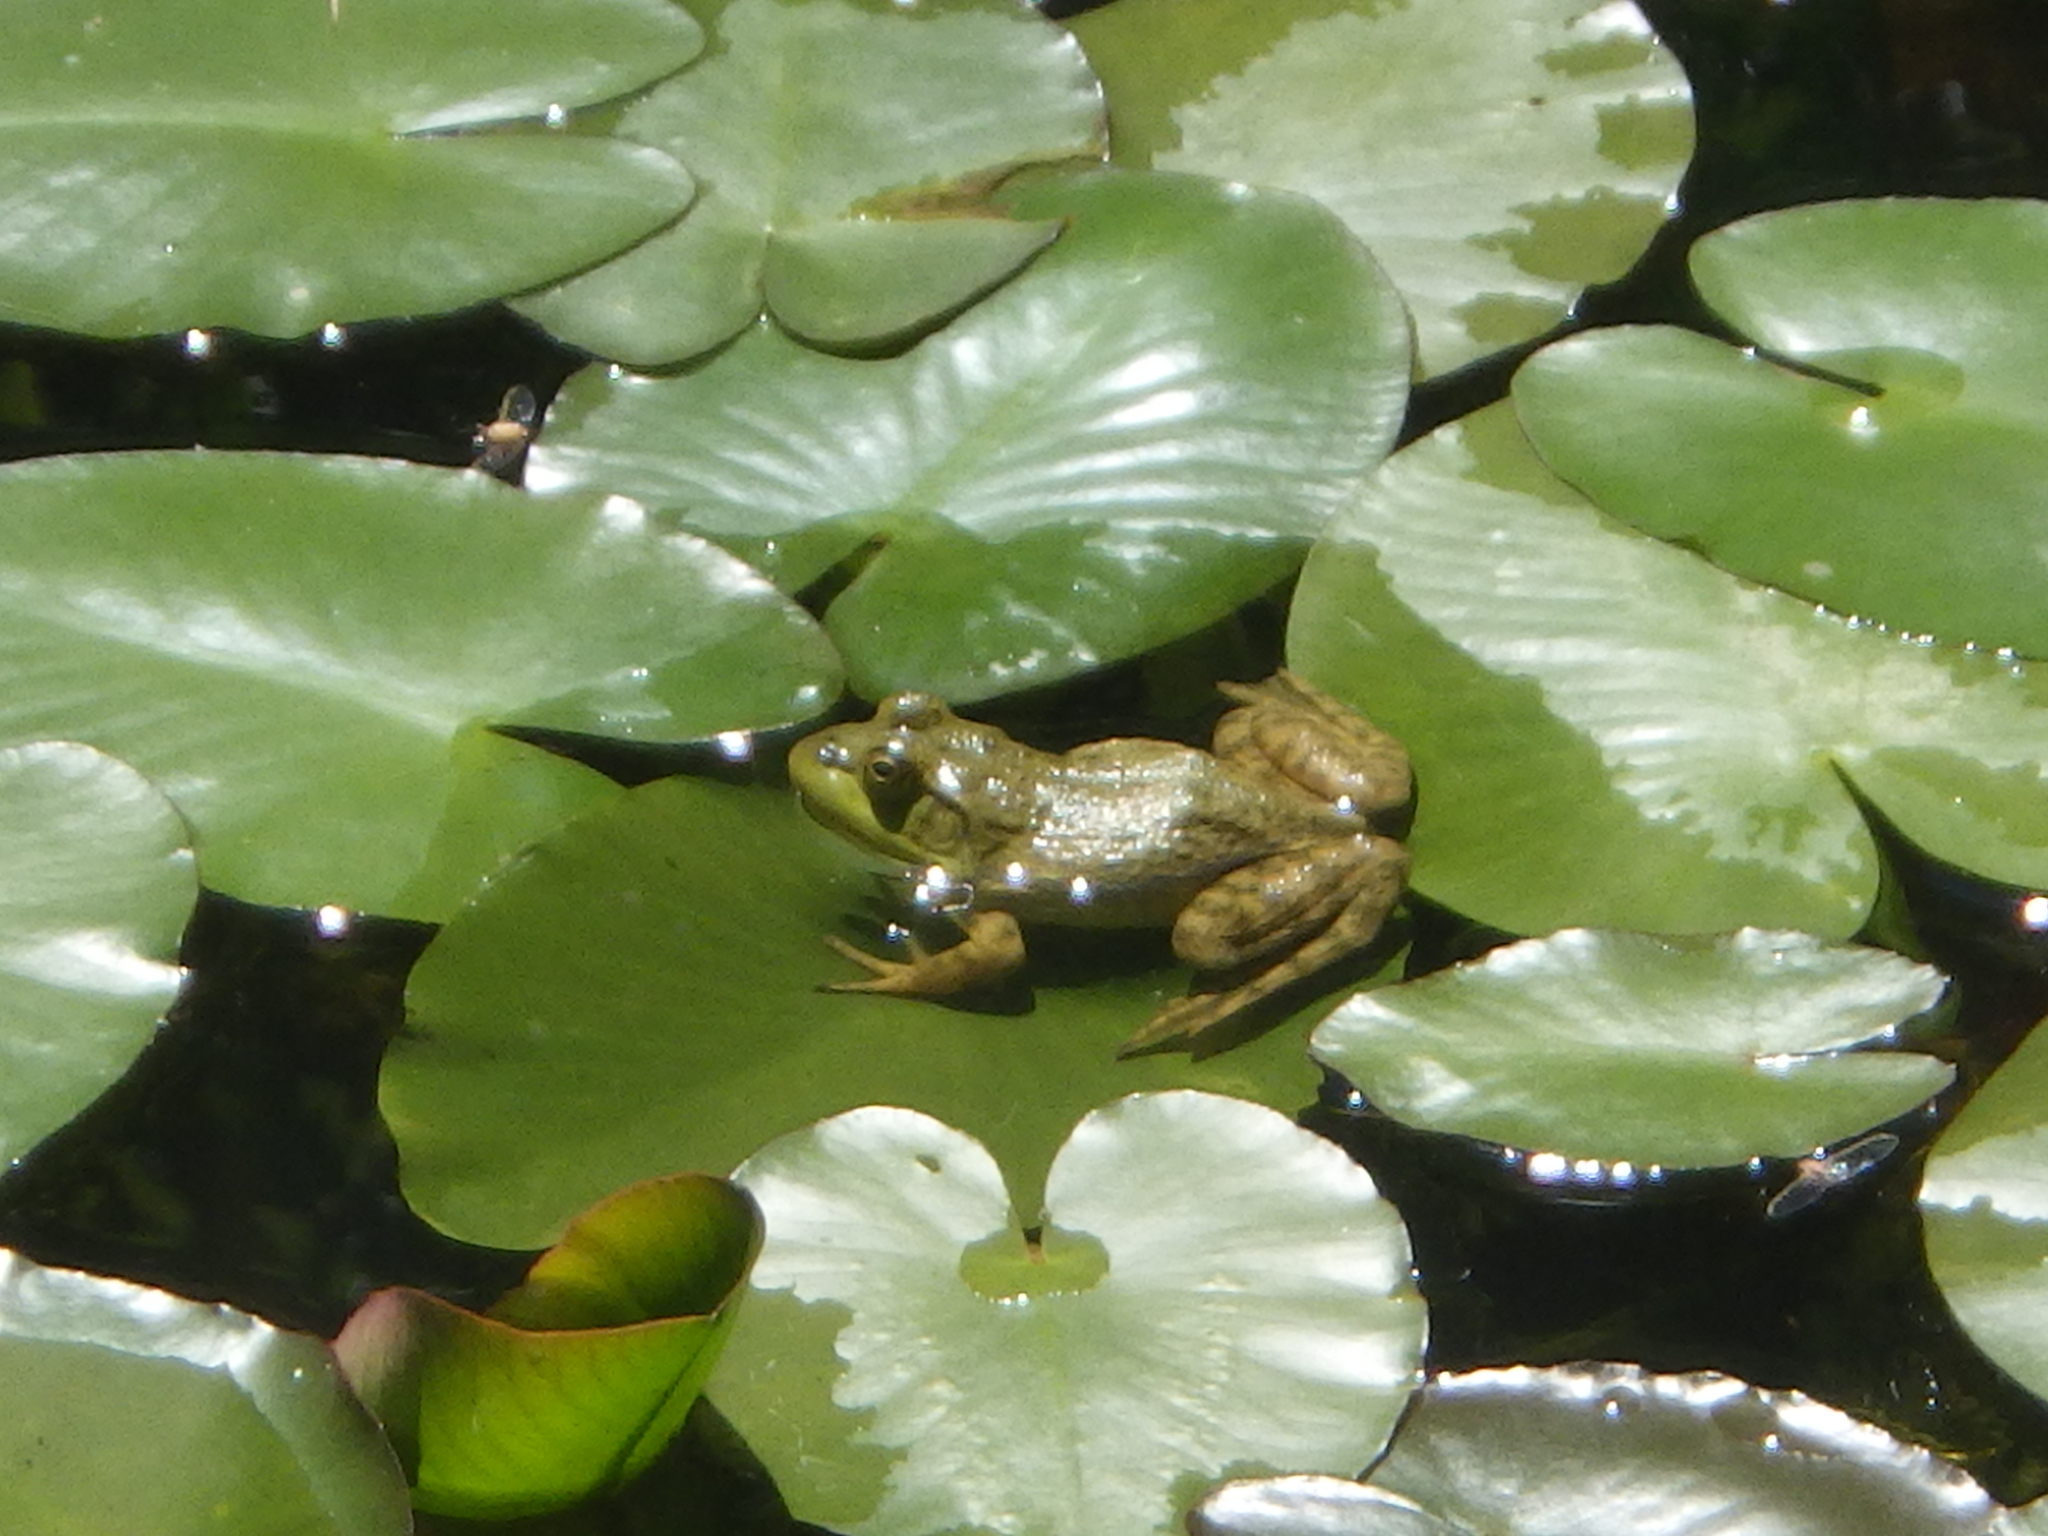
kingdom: Animalia
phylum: Chordata
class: Amphibia
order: Anura
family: Ranidae
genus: Lithobates
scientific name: Lithobates catesbeianus
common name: American bullfrog
